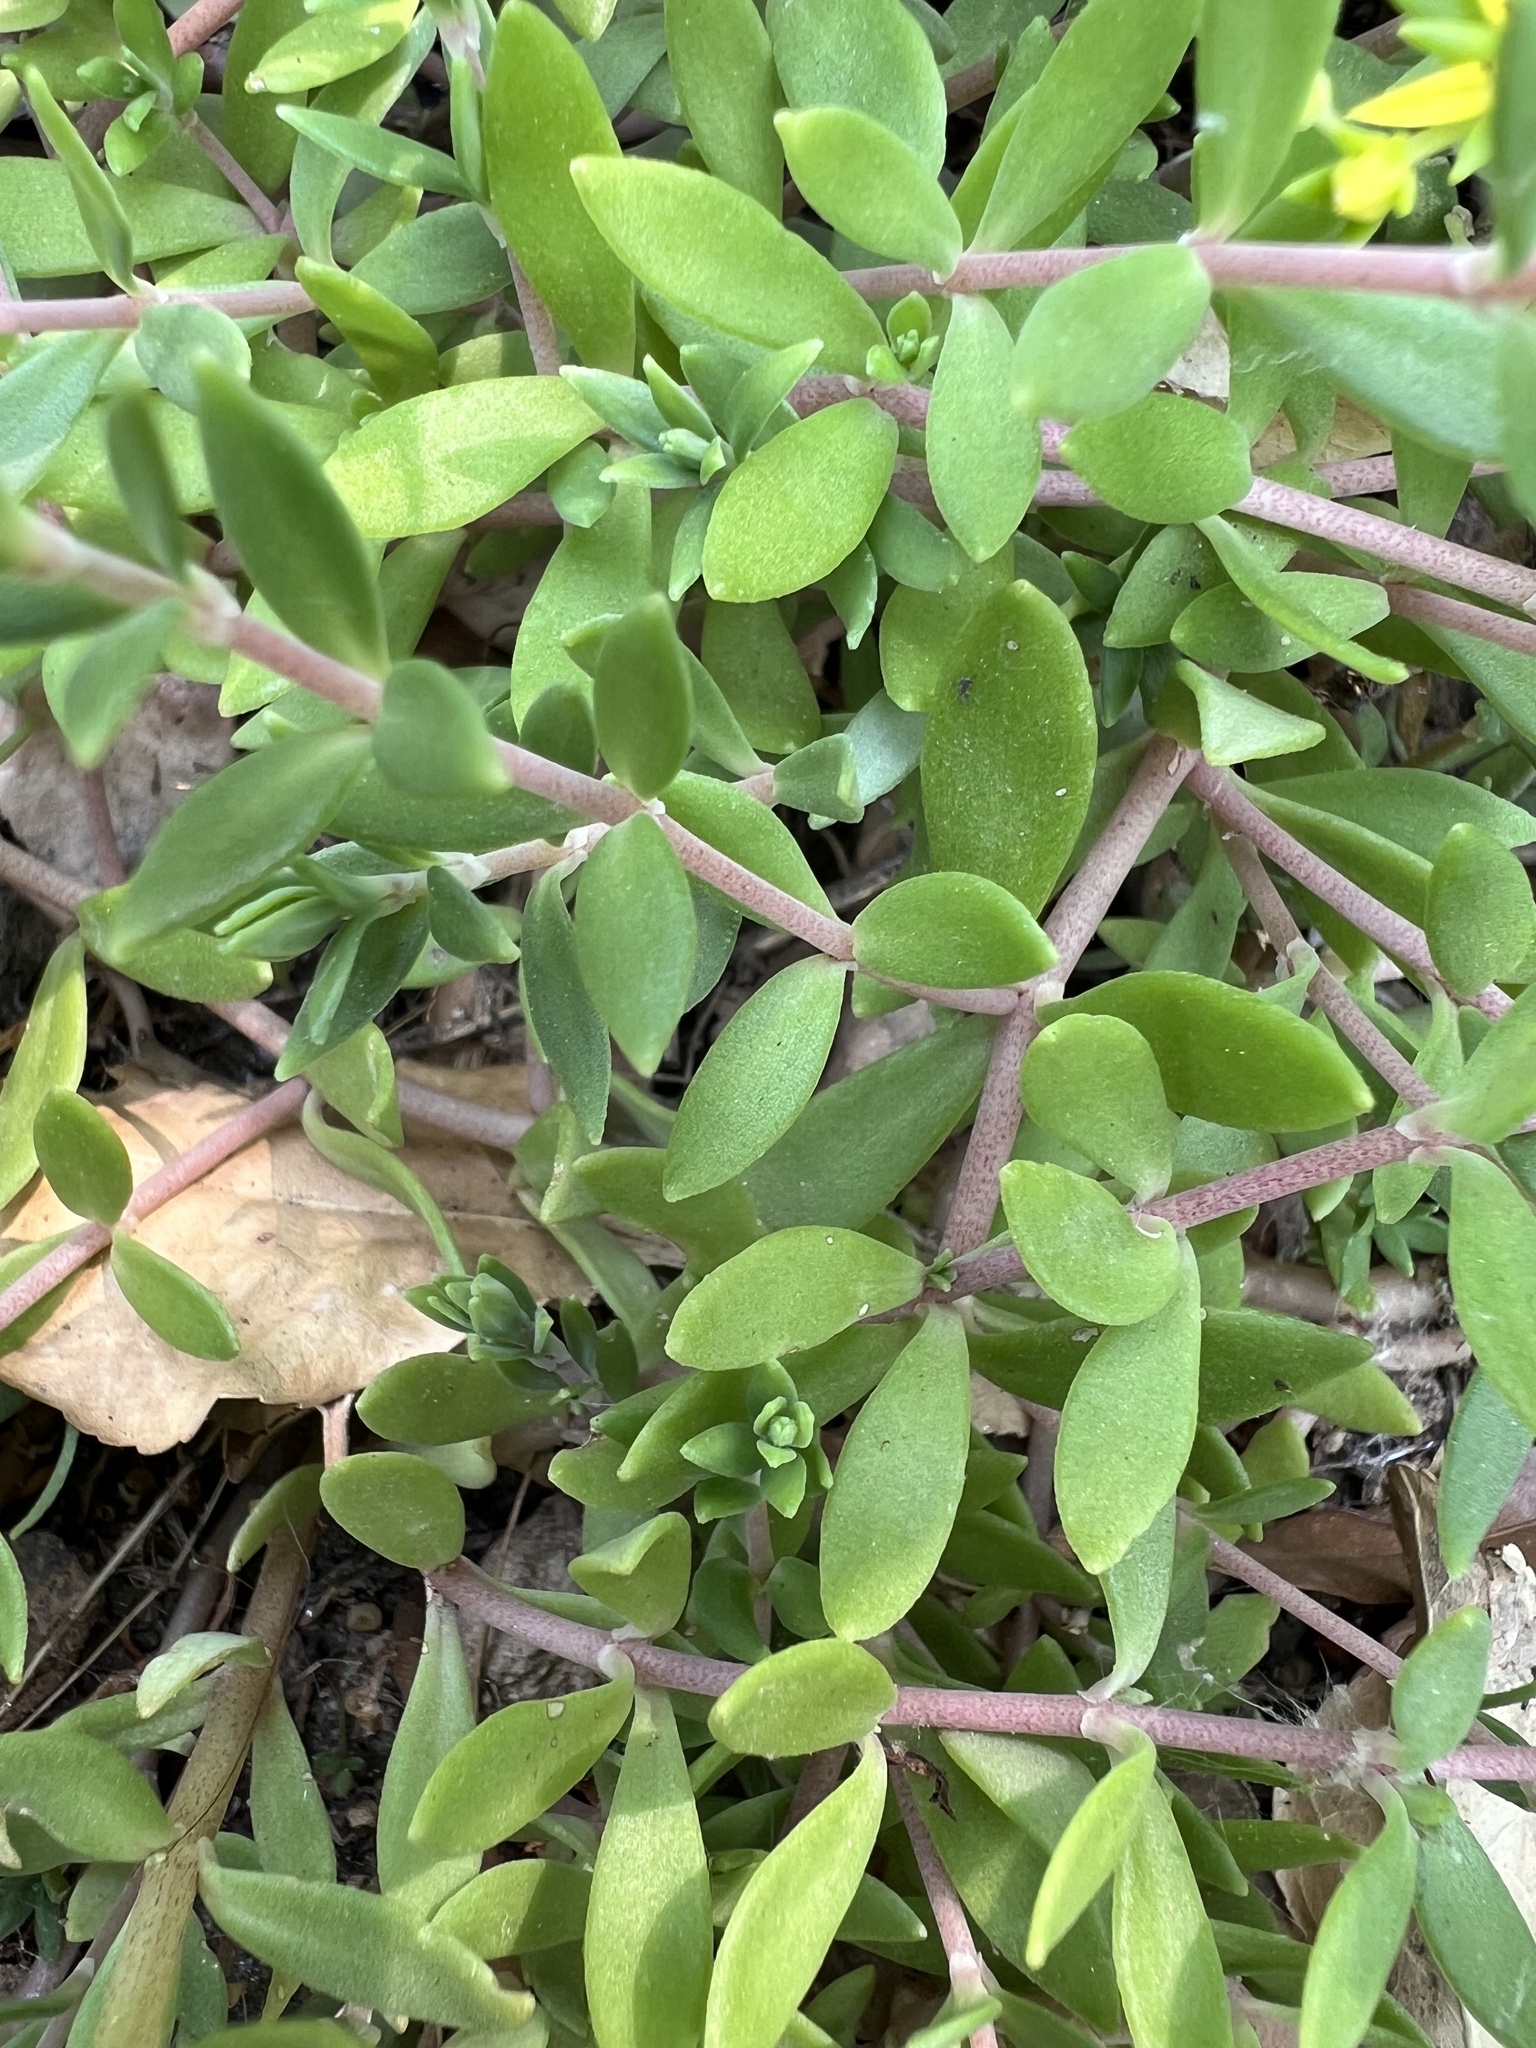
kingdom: Plantae
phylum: Tracheophyta
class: Magnoliopsida
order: Saxifragales
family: Crassulaceae
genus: Sedum
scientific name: Sedum sarmentosum
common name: Stringy stonecrop
